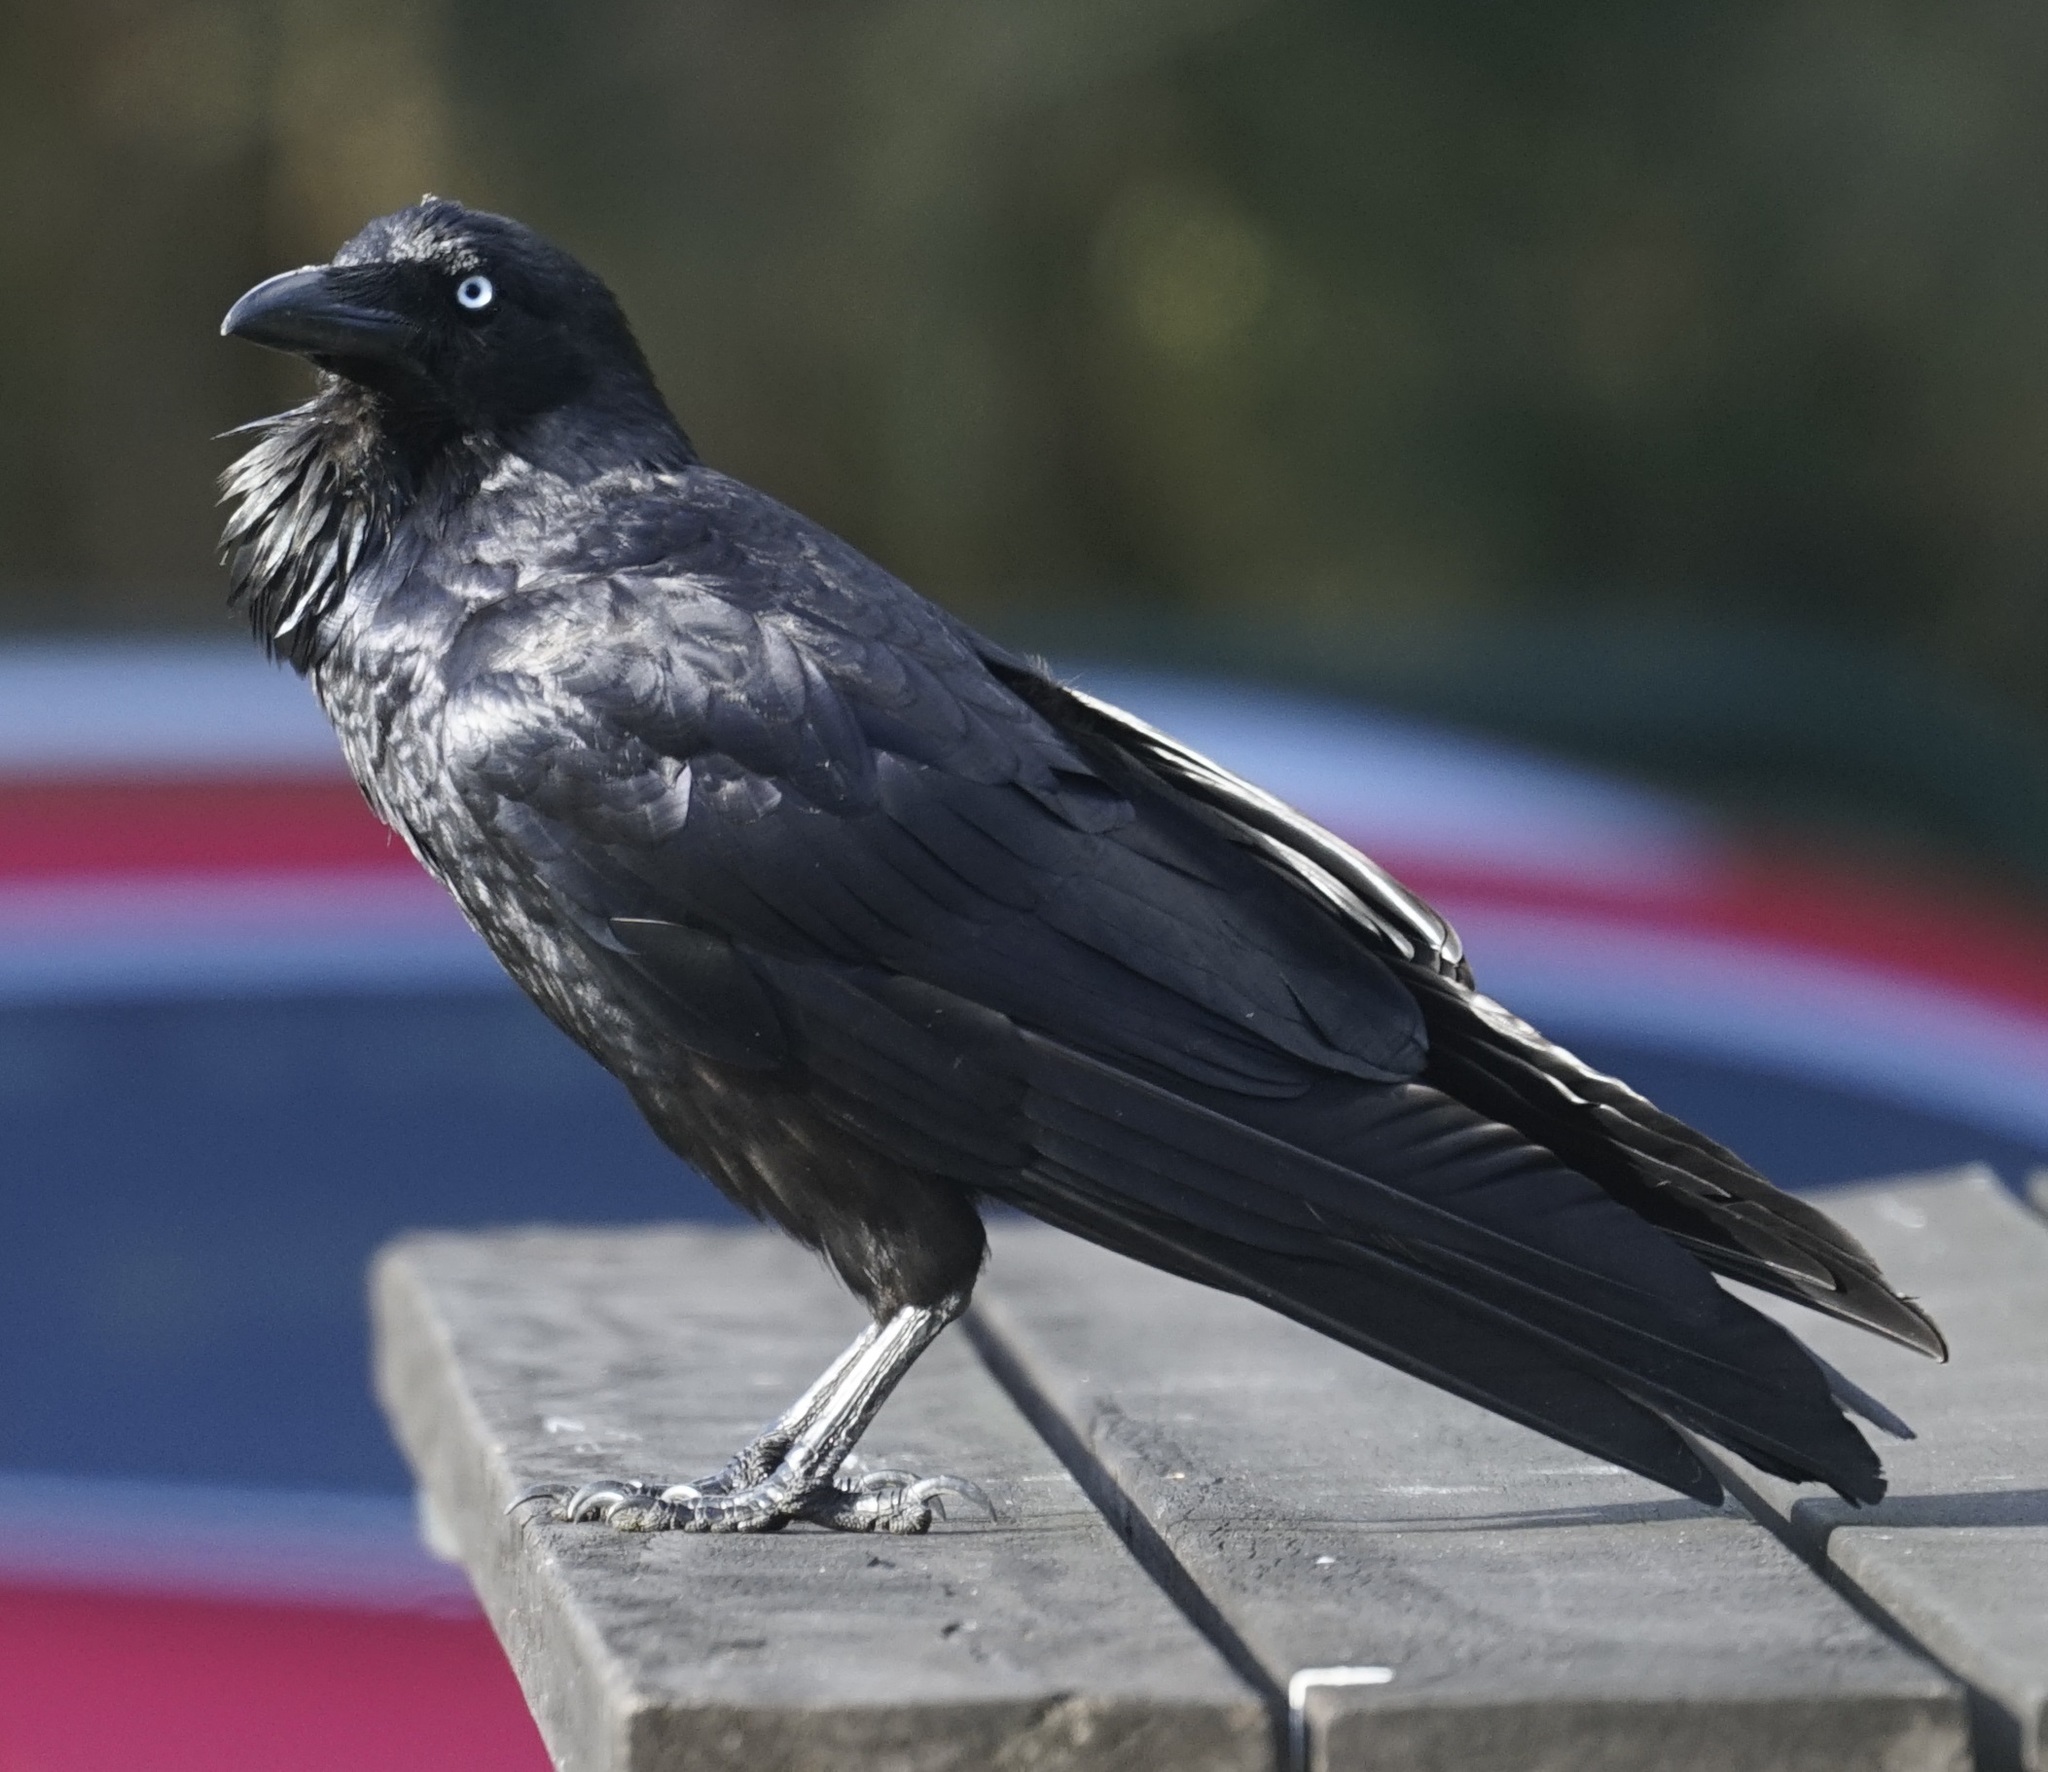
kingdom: Animalia
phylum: Chordata
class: Aves
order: Passeriformes
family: Corvidae
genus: Corvus
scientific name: Corvus coronoides
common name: Australian raven
